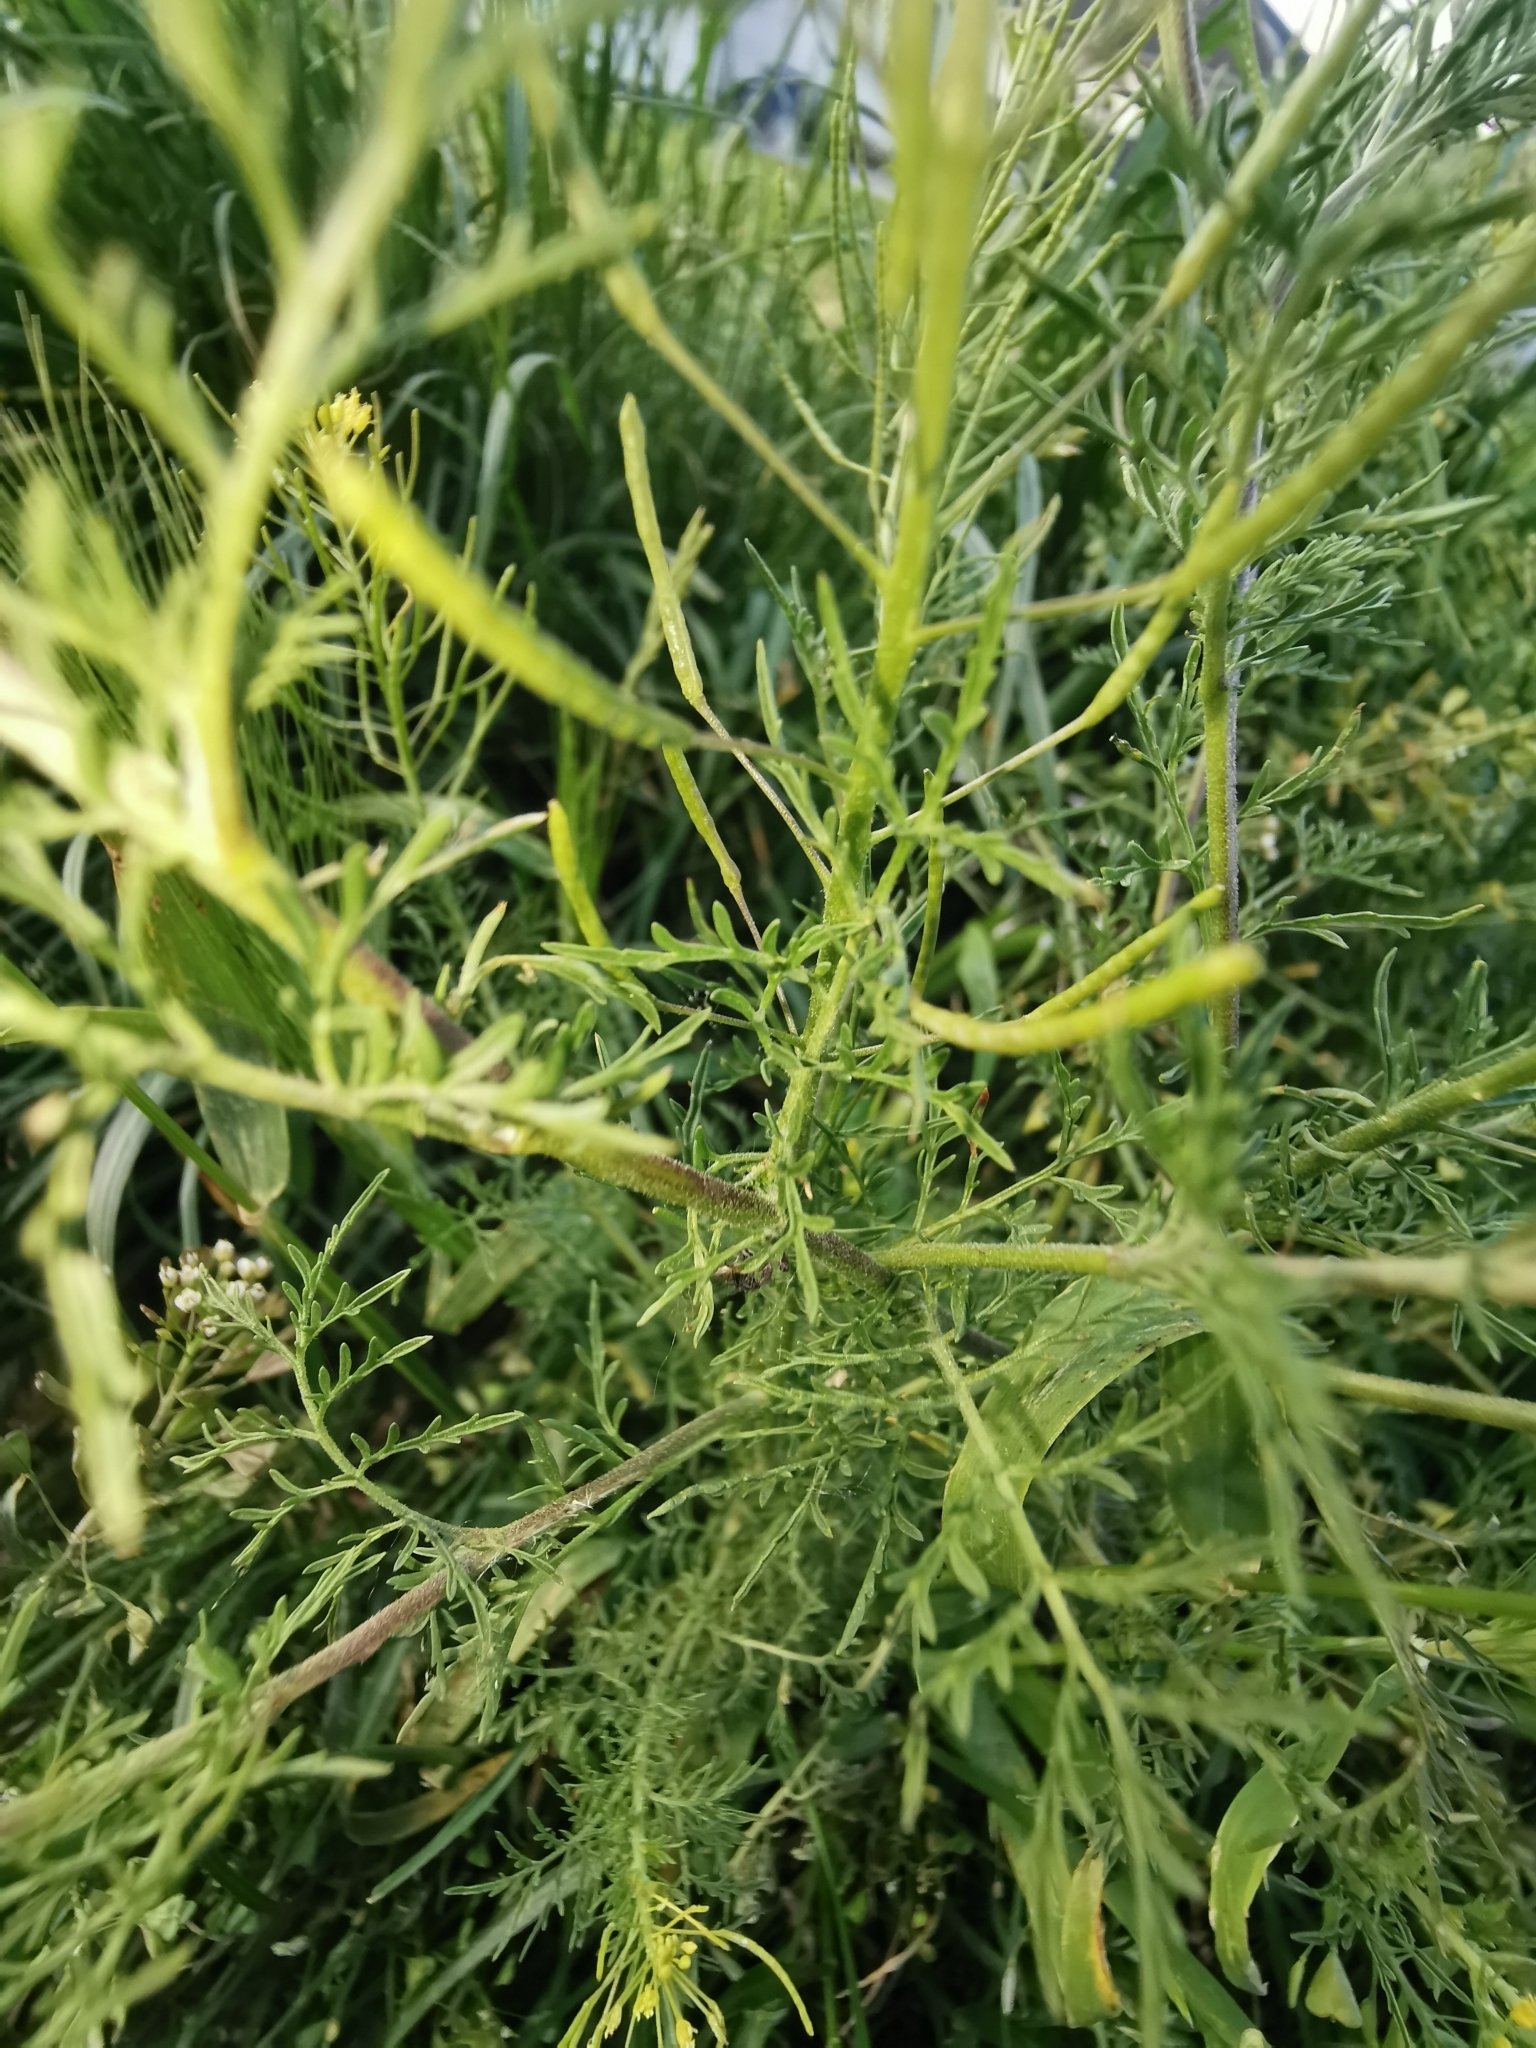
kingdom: Plantae
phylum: Tracheophyta
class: Magnoliopsida
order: Brassicales
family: Brassicaceae
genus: Descurainia
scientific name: Descurainia sophia
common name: Flixweed
